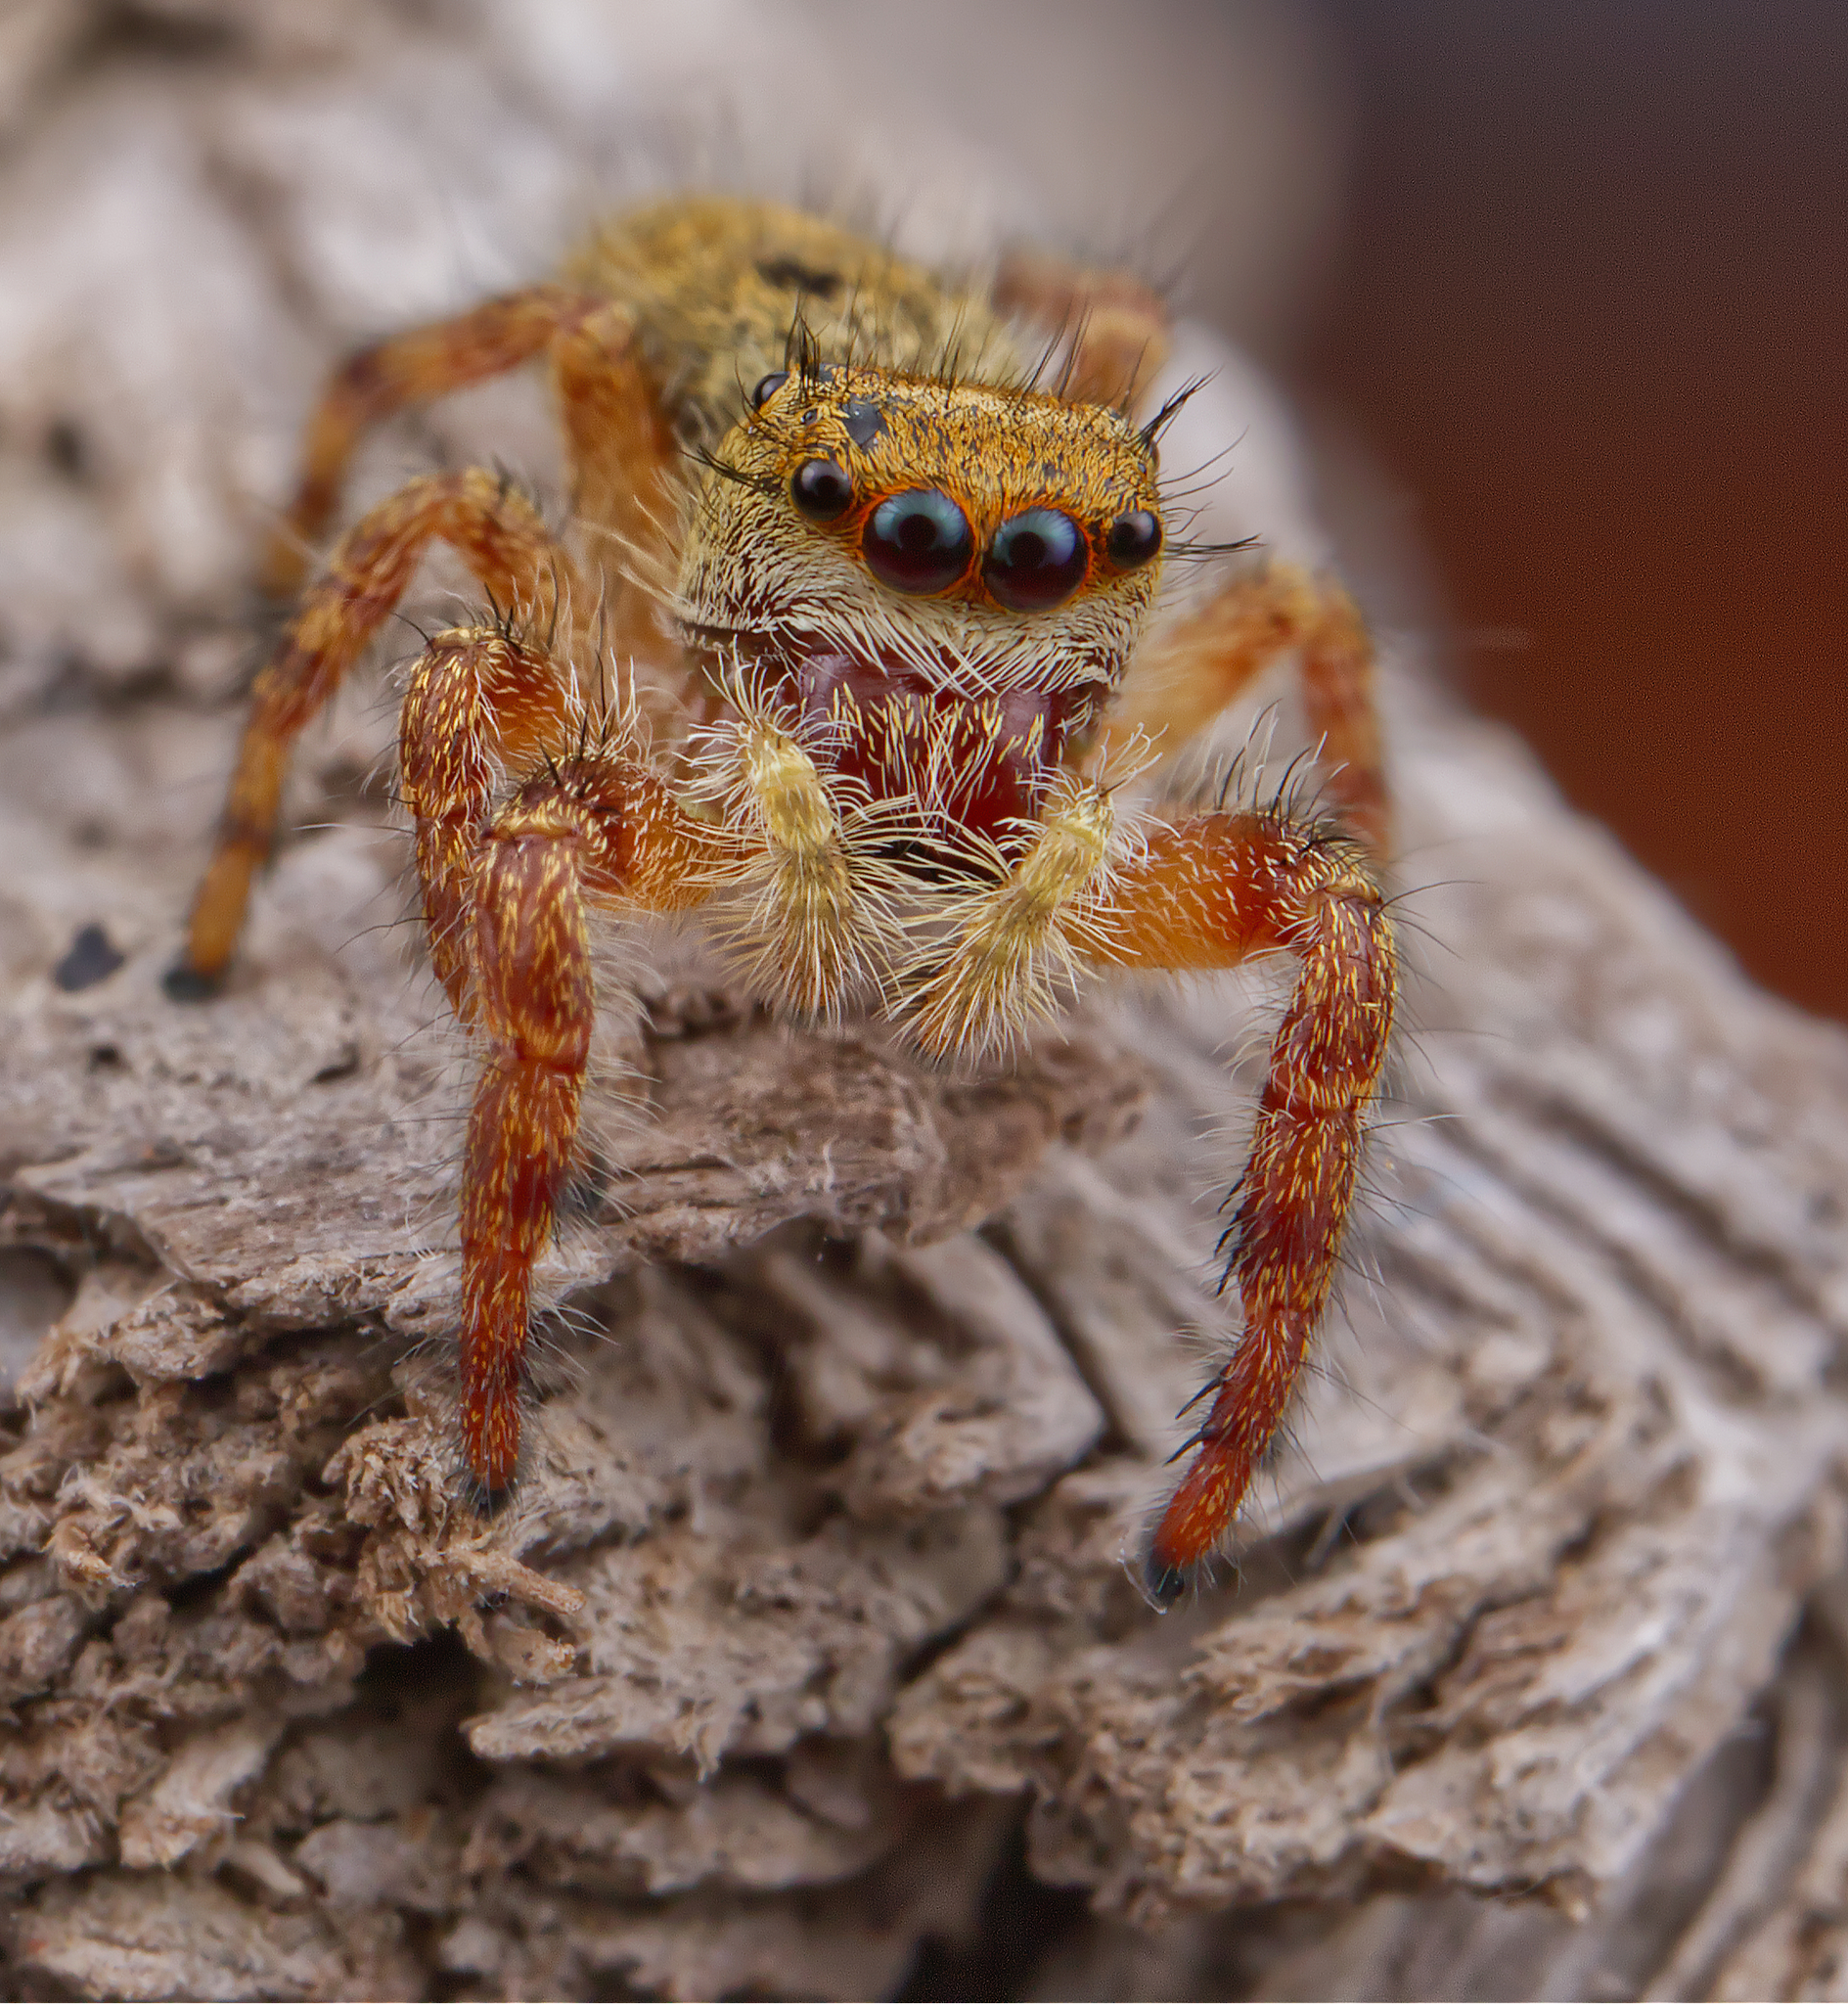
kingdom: Animalia
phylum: Arthropoda
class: Arachnida
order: Araneae
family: Salticidae
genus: Phidippus
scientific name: Phidippus princeps
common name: Grayish jumping spider
